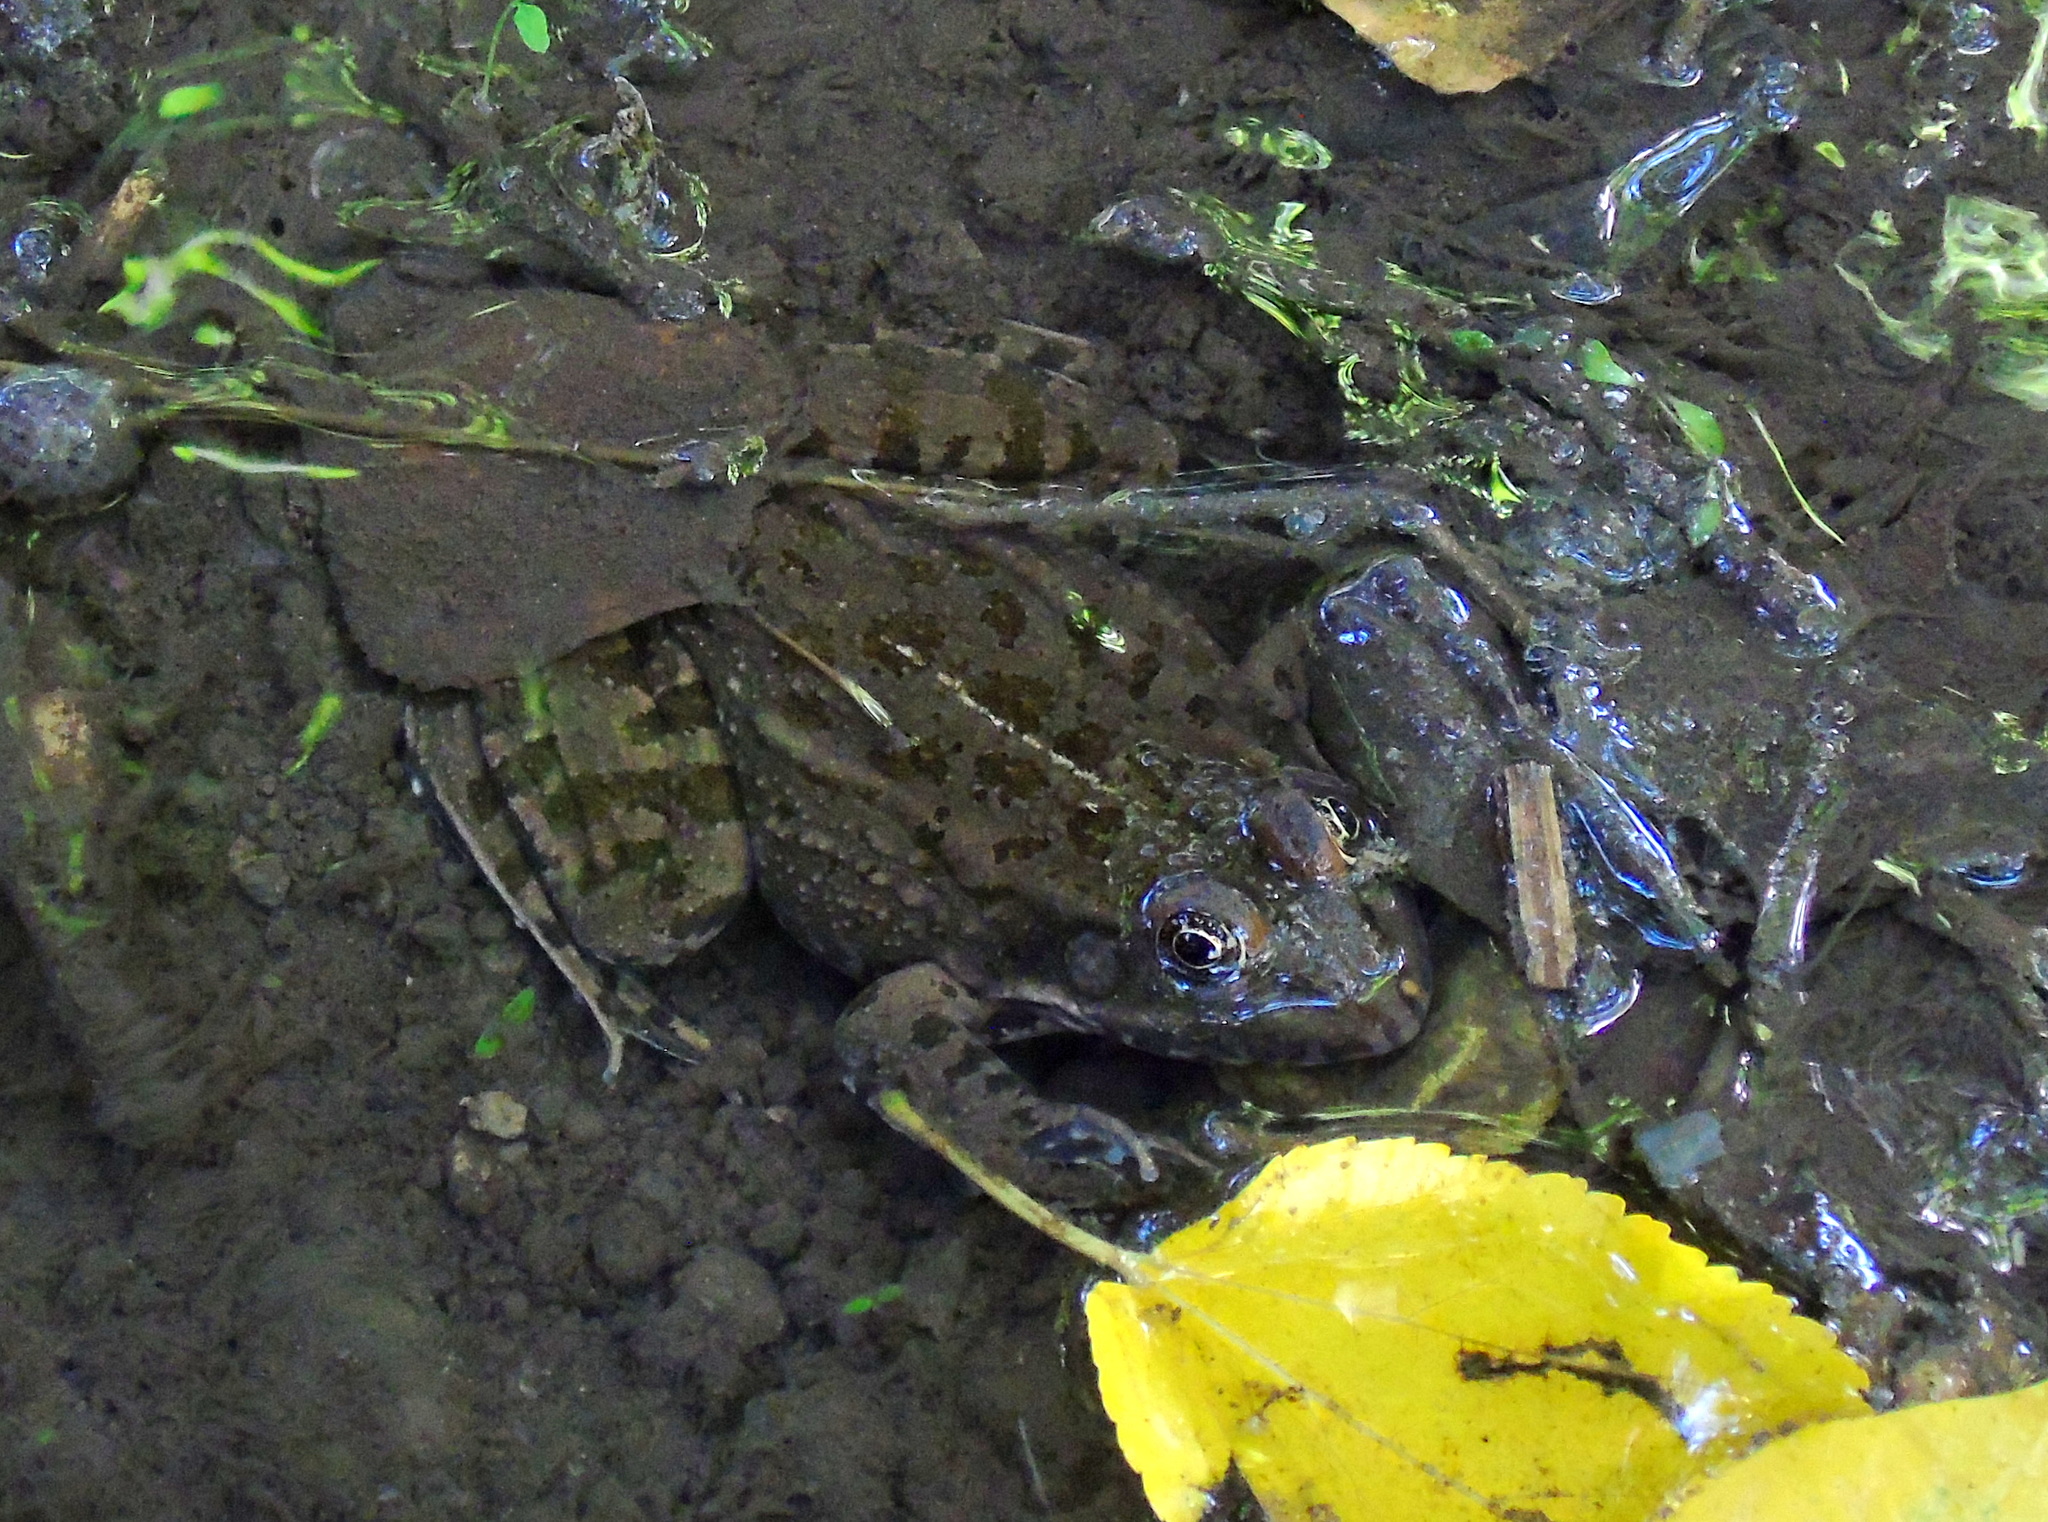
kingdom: Animalia
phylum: Chordata
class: Amphibia
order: Anura
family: Ranidae
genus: Pelophylax
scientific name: Pelophylax ridibundus
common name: Marsh frog
